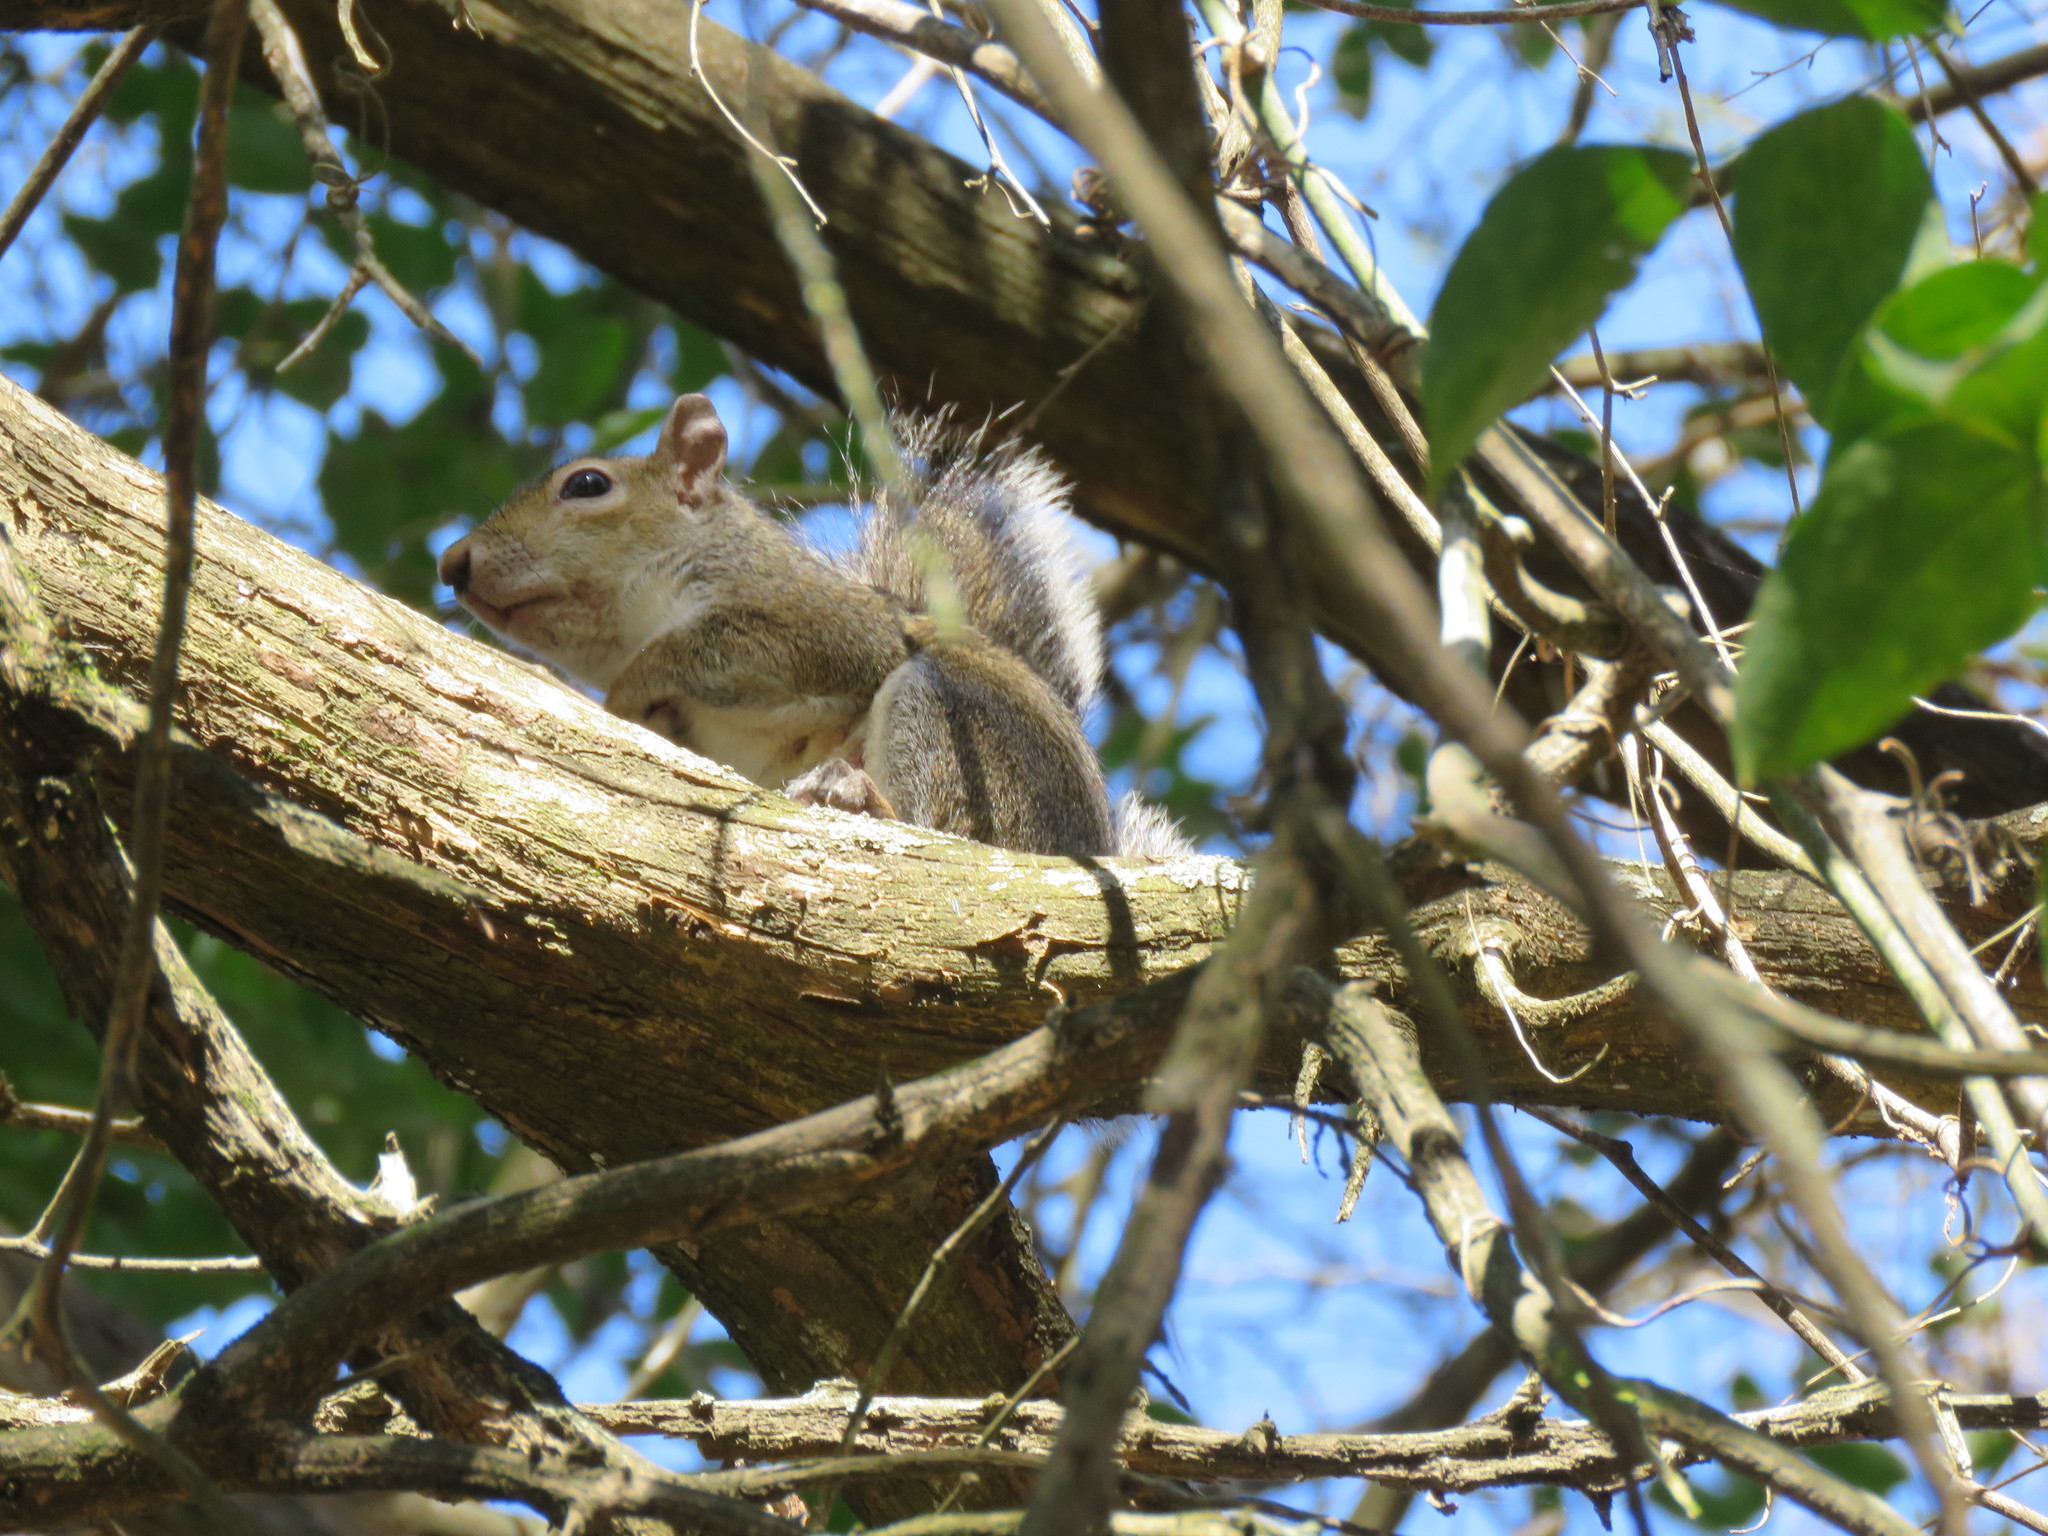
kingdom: Animalia
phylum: Chordata
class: Mammalia
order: Rodentia
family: Sciuridae
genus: Sciurus
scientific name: Sciurus carolinensis
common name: Eastern gray squirrel
